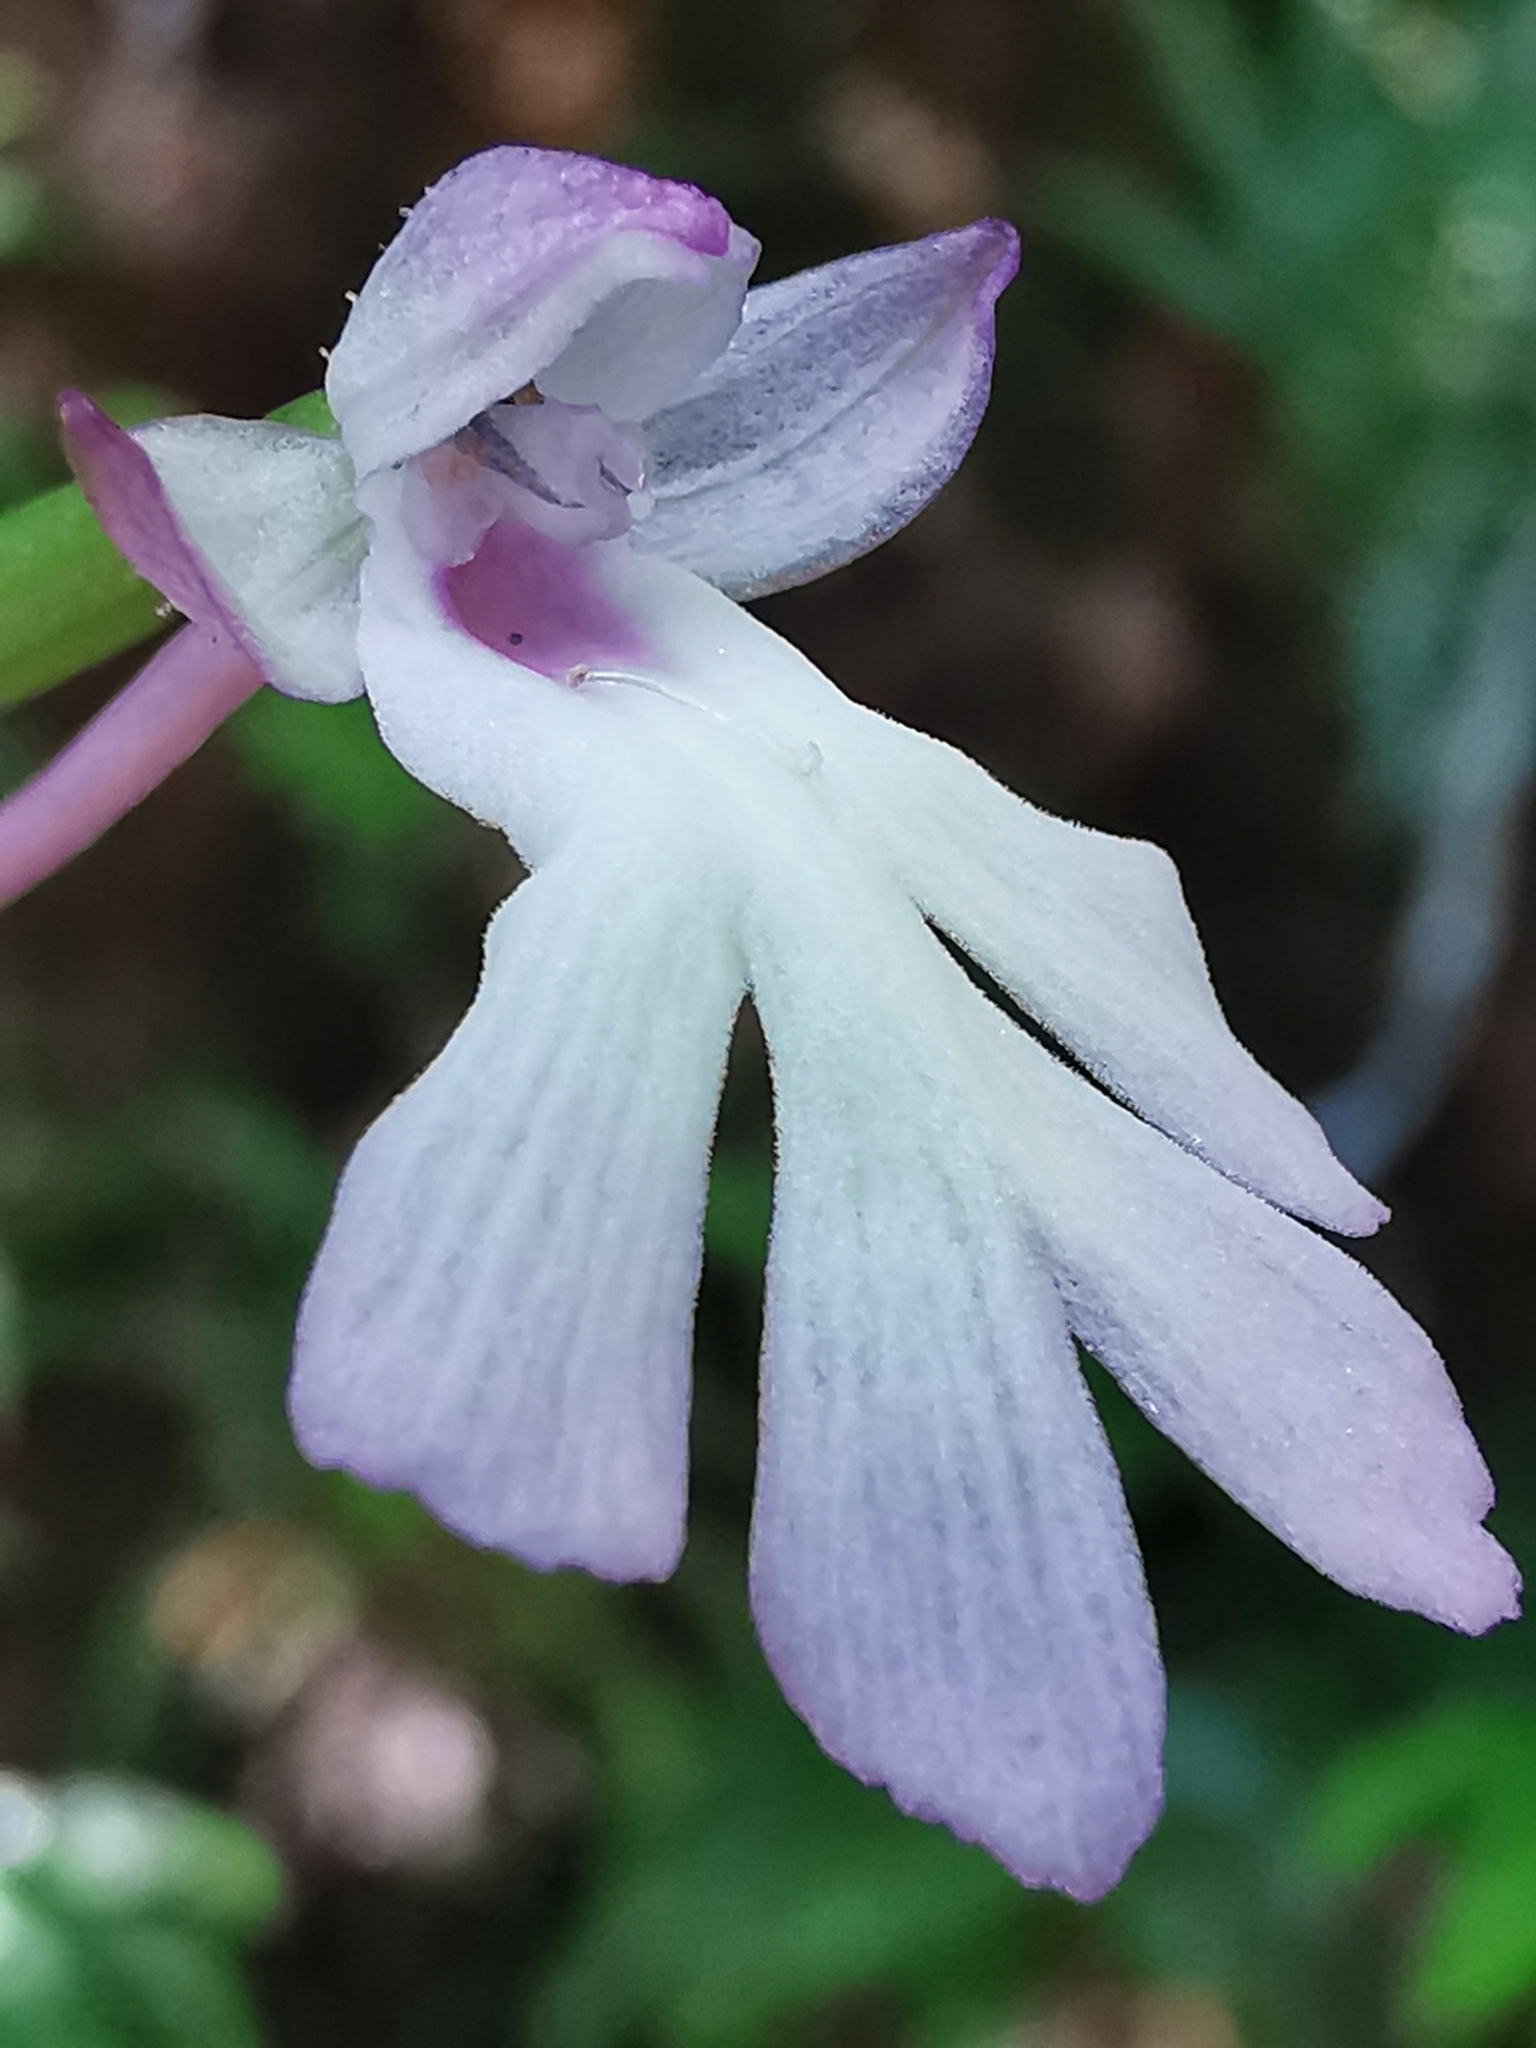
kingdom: Plantae
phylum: Tracheophyta
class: Liliopsida
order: Asparagales
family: Orchidaceae
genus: Cynorkis
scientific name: Cynorkis fastigiata
